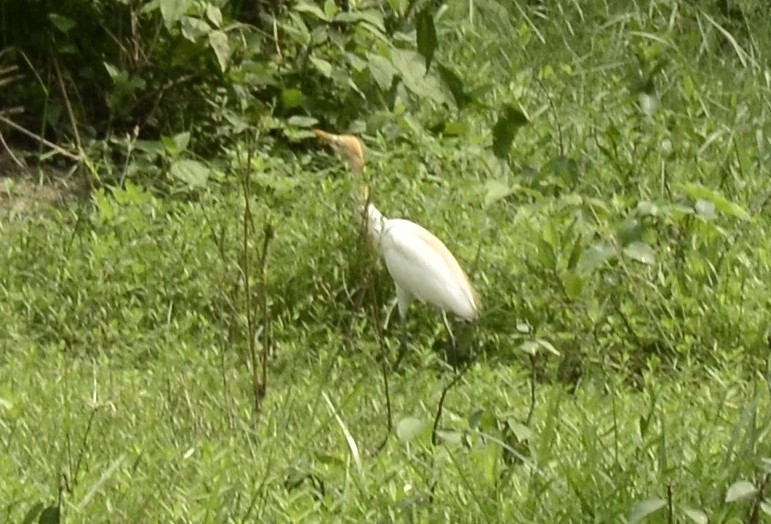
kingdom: Animalia
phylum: Chordata
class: Aves
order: Pelecaniformes
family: Ardeidae
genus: Bubulcus
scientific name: Bubulcus coromandus
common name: Eastern cattle egret
